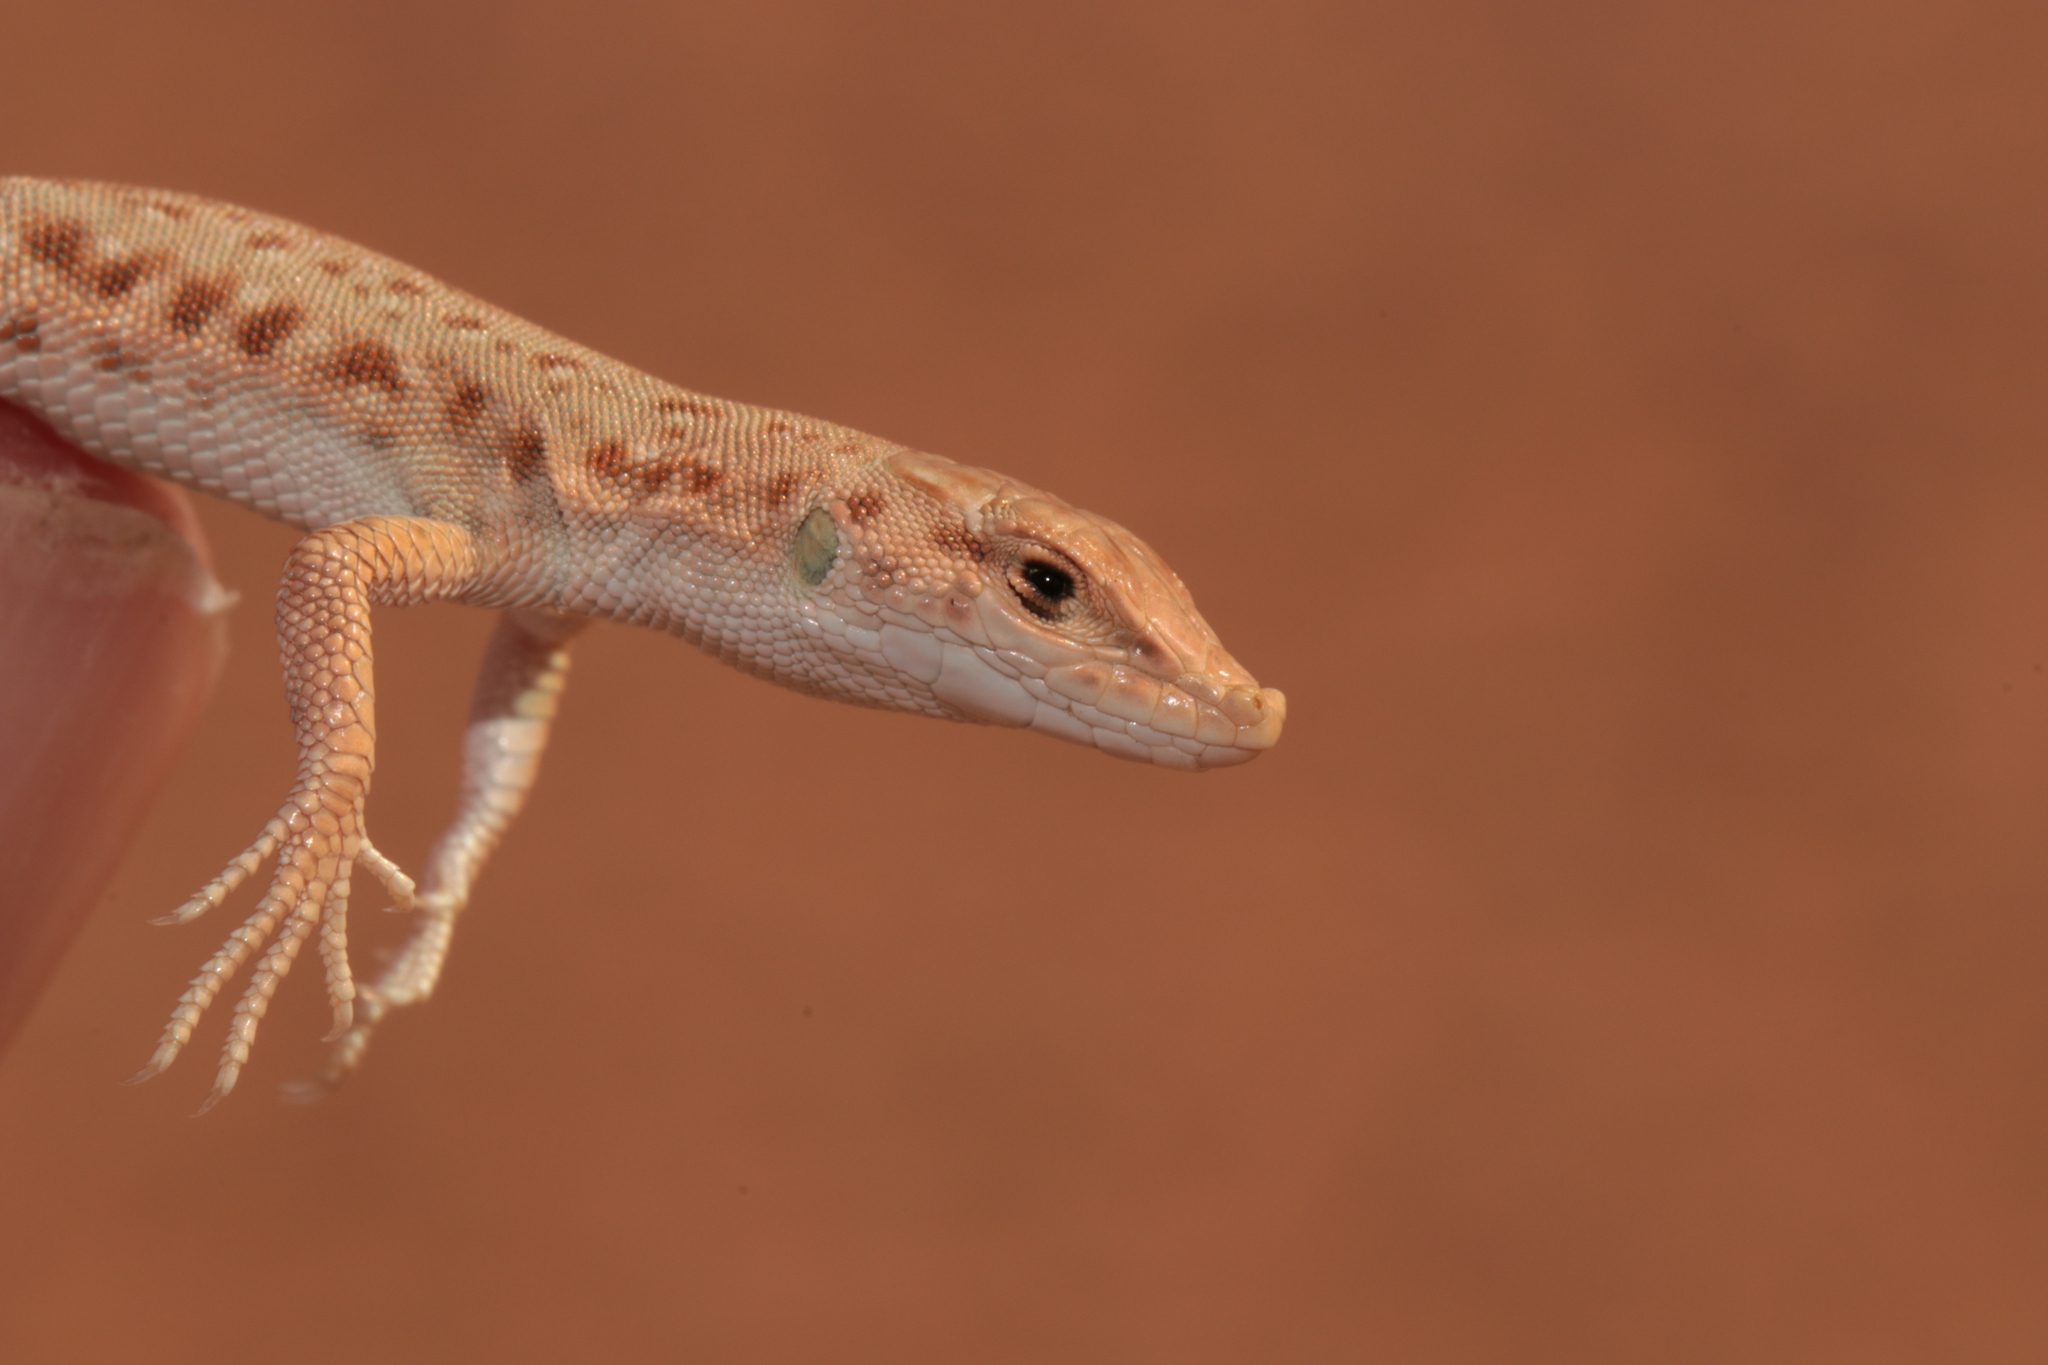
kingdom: Animalia
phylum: Chordata
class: Squamata
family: Lacertidae
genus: Mesalina
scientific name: Mesalina brevirostris
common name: Blanford's short-nosed desert lizard
